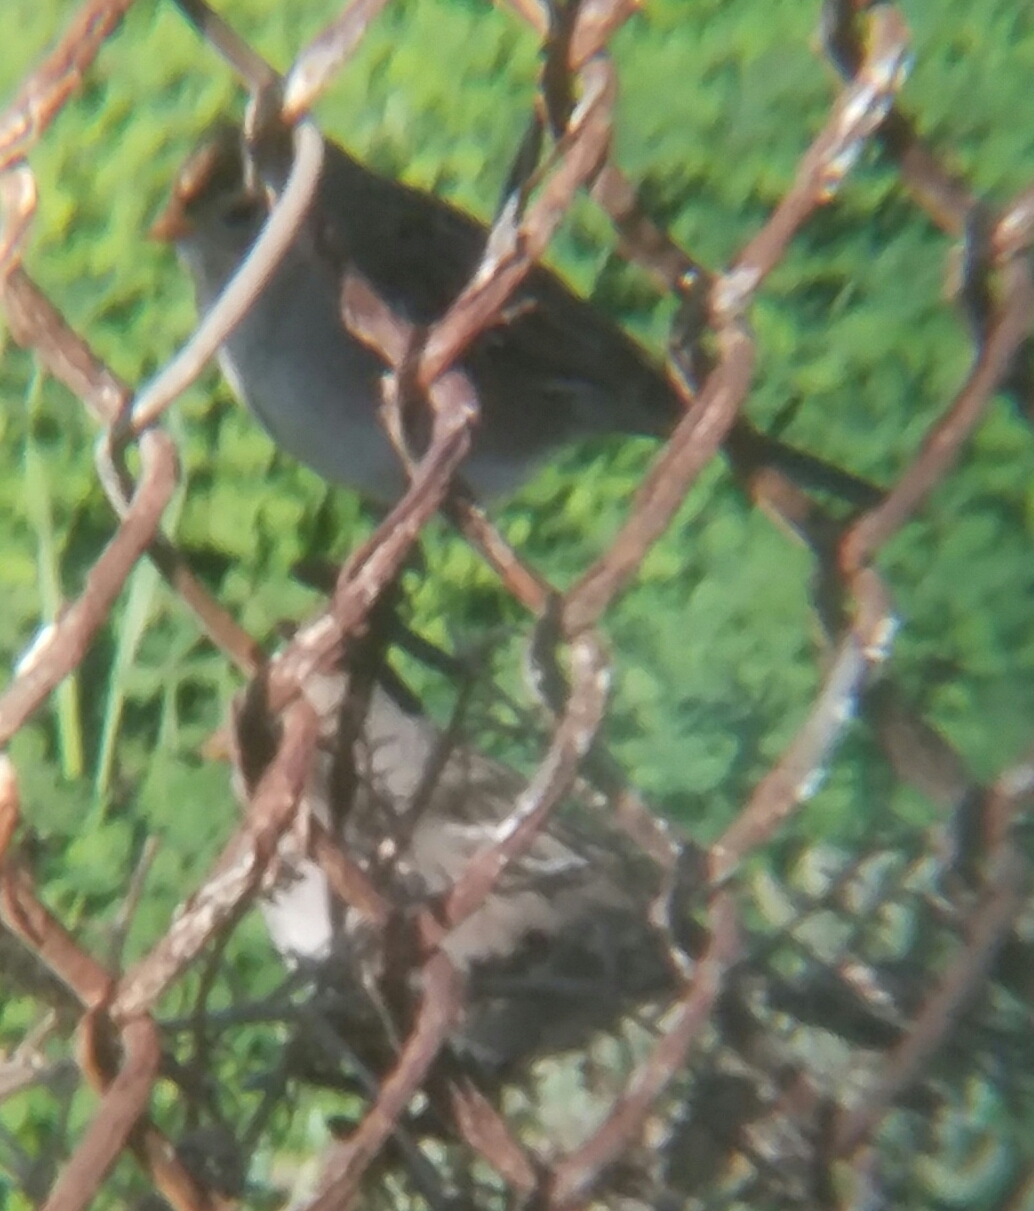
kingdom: Animalia
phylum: Chordata
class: Aves
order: Passeriformes
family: Passerellidae
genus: Zonotrichia
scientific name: Zonotrichia leucophrys
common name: White-crowned sparrow
